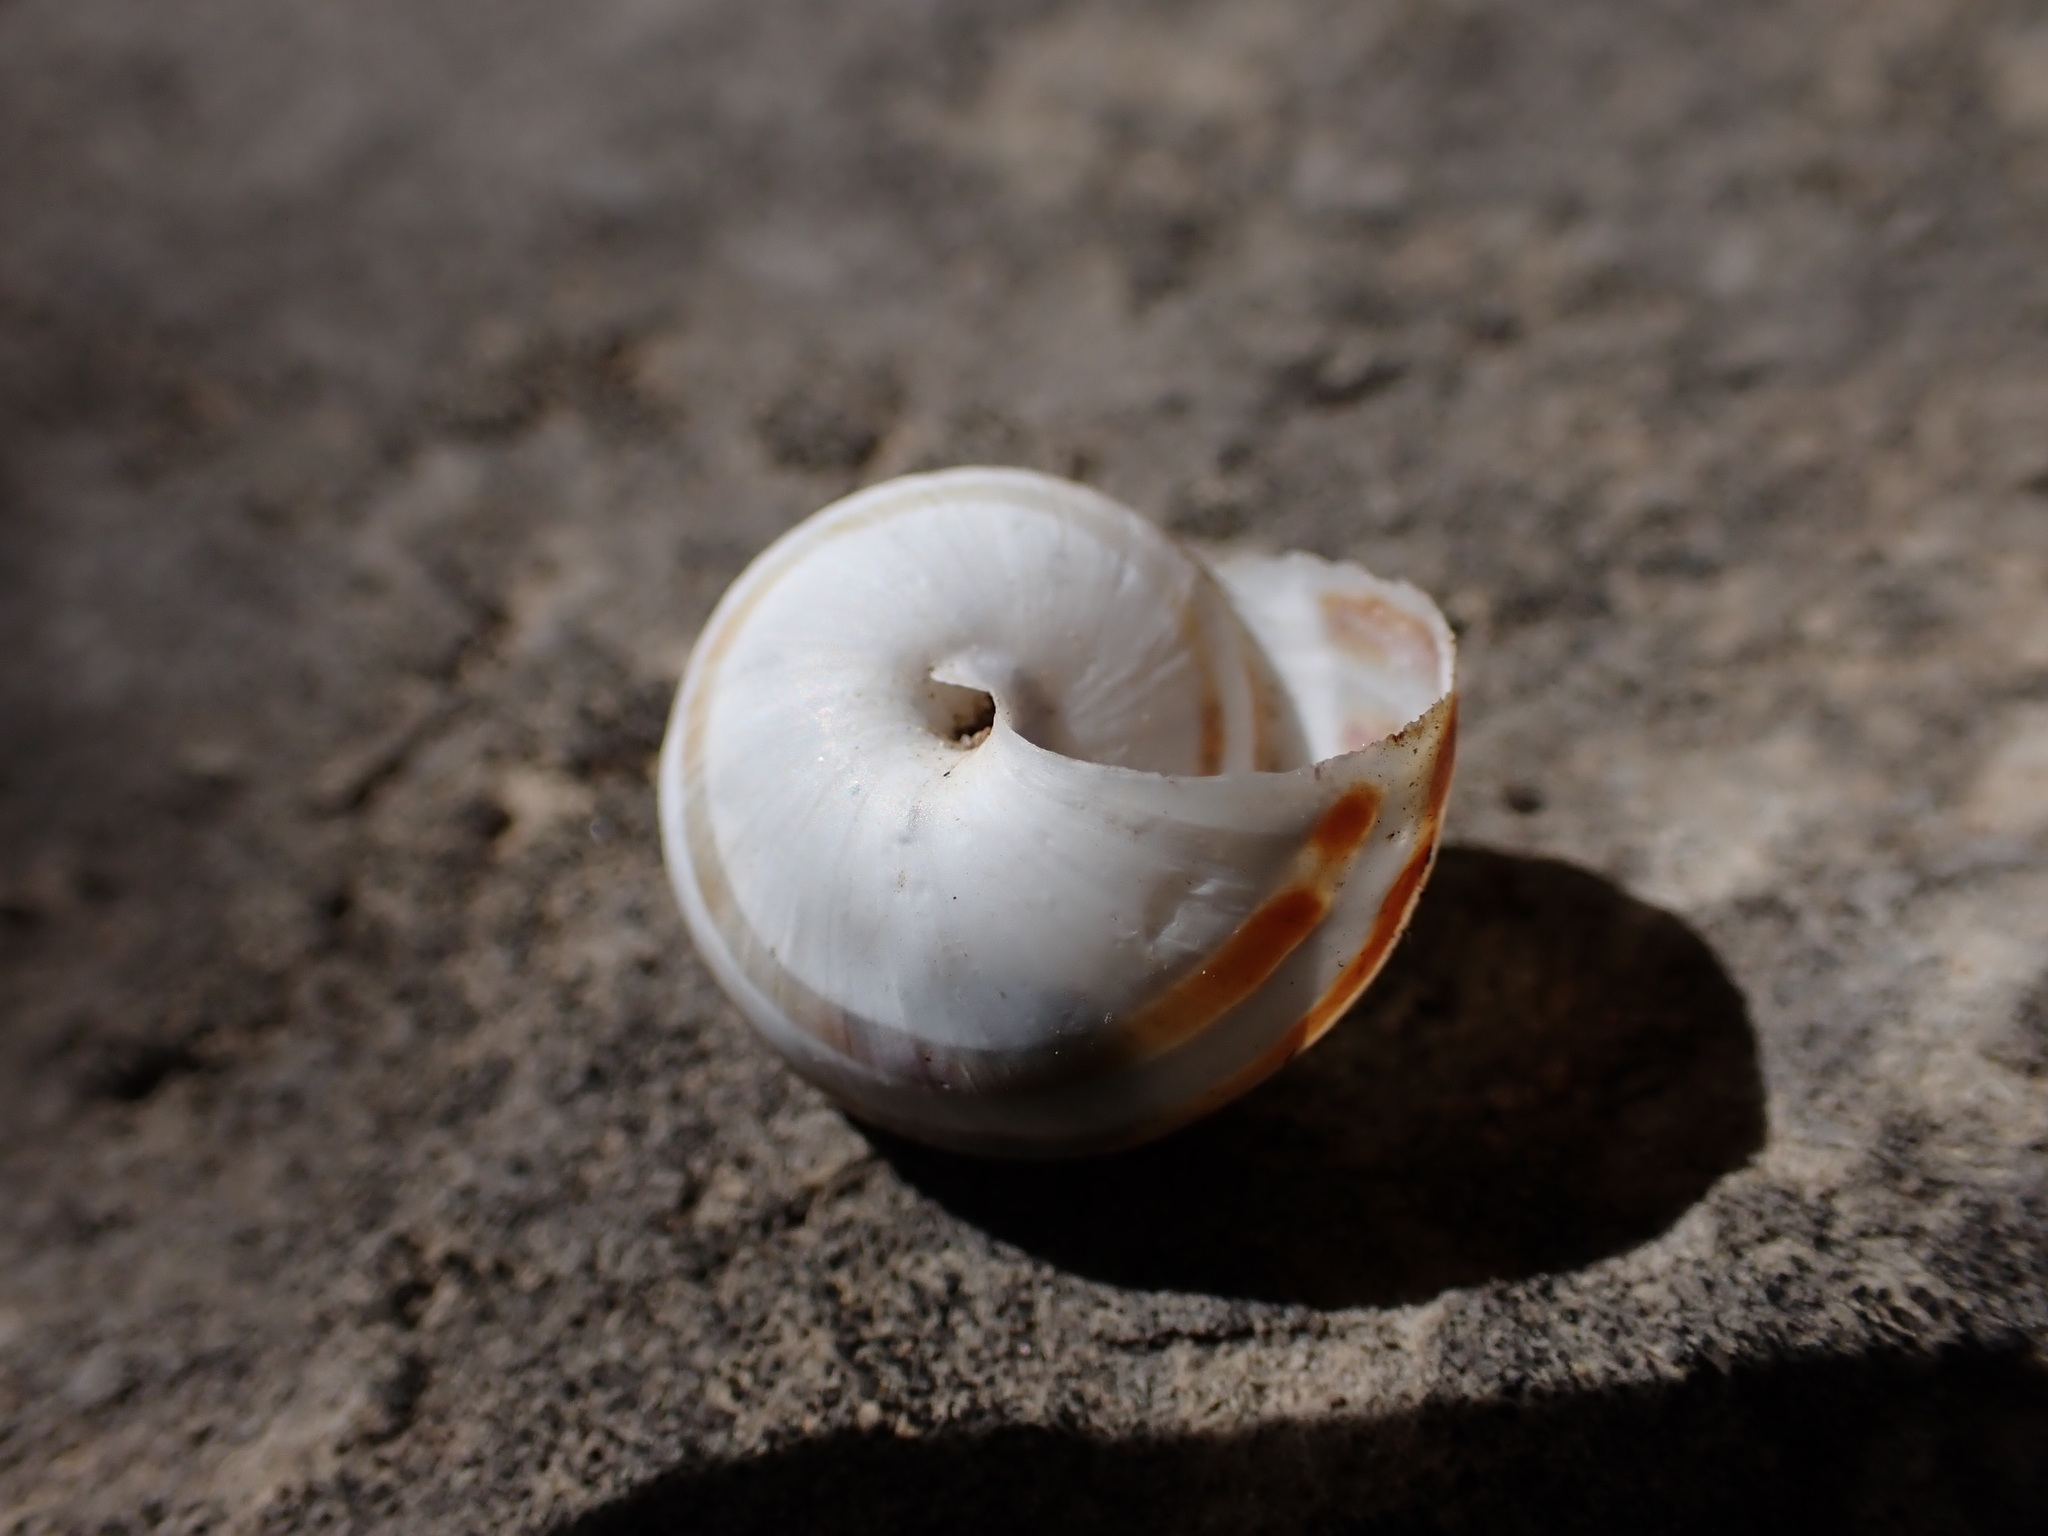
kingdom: Animalia
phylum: Mollusca
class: Gastropoda
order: Stylommatophora
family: Helicidae
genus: Pseudotachea
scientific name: Pseudotachea splendida
